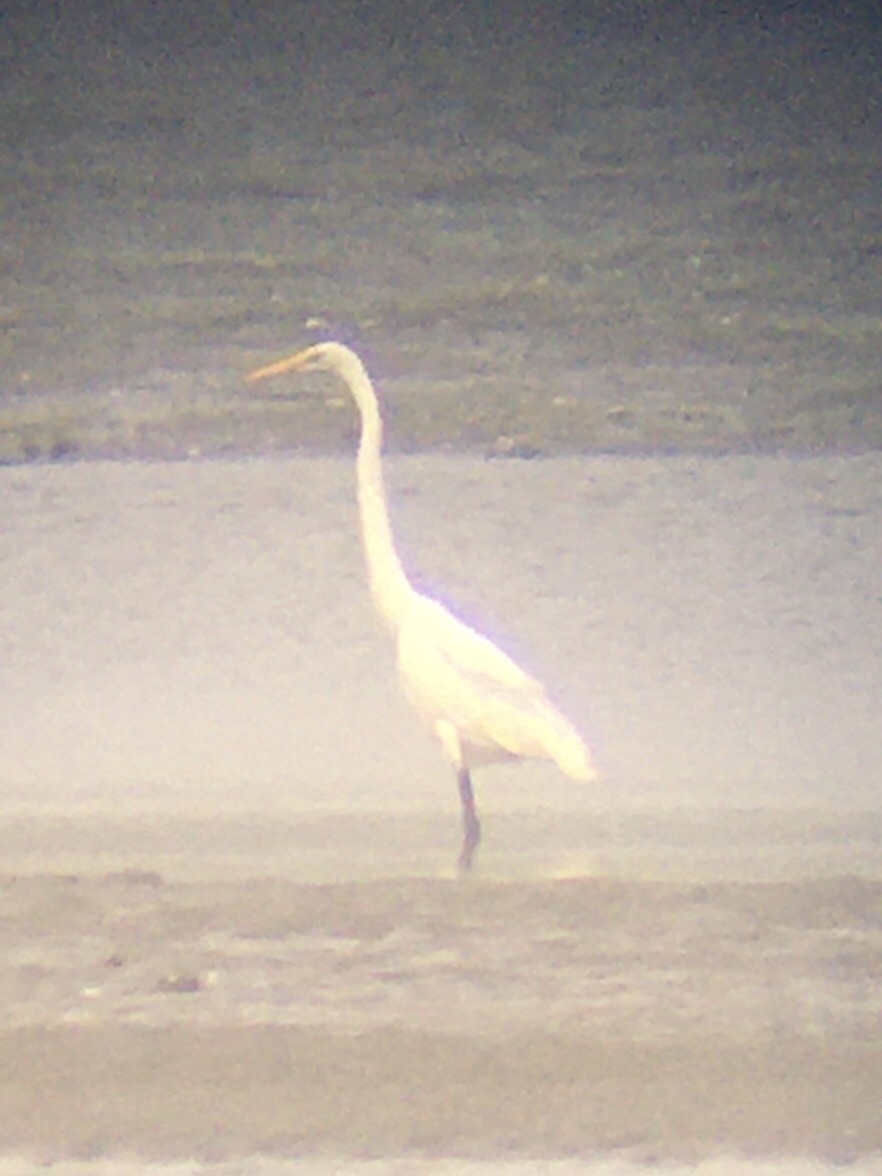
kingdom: Animalia
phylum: Chordata
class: Aves
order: Pelecaniformes
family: Ardeidae
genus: Ardea
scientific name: Ardea alba
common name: Great egret
